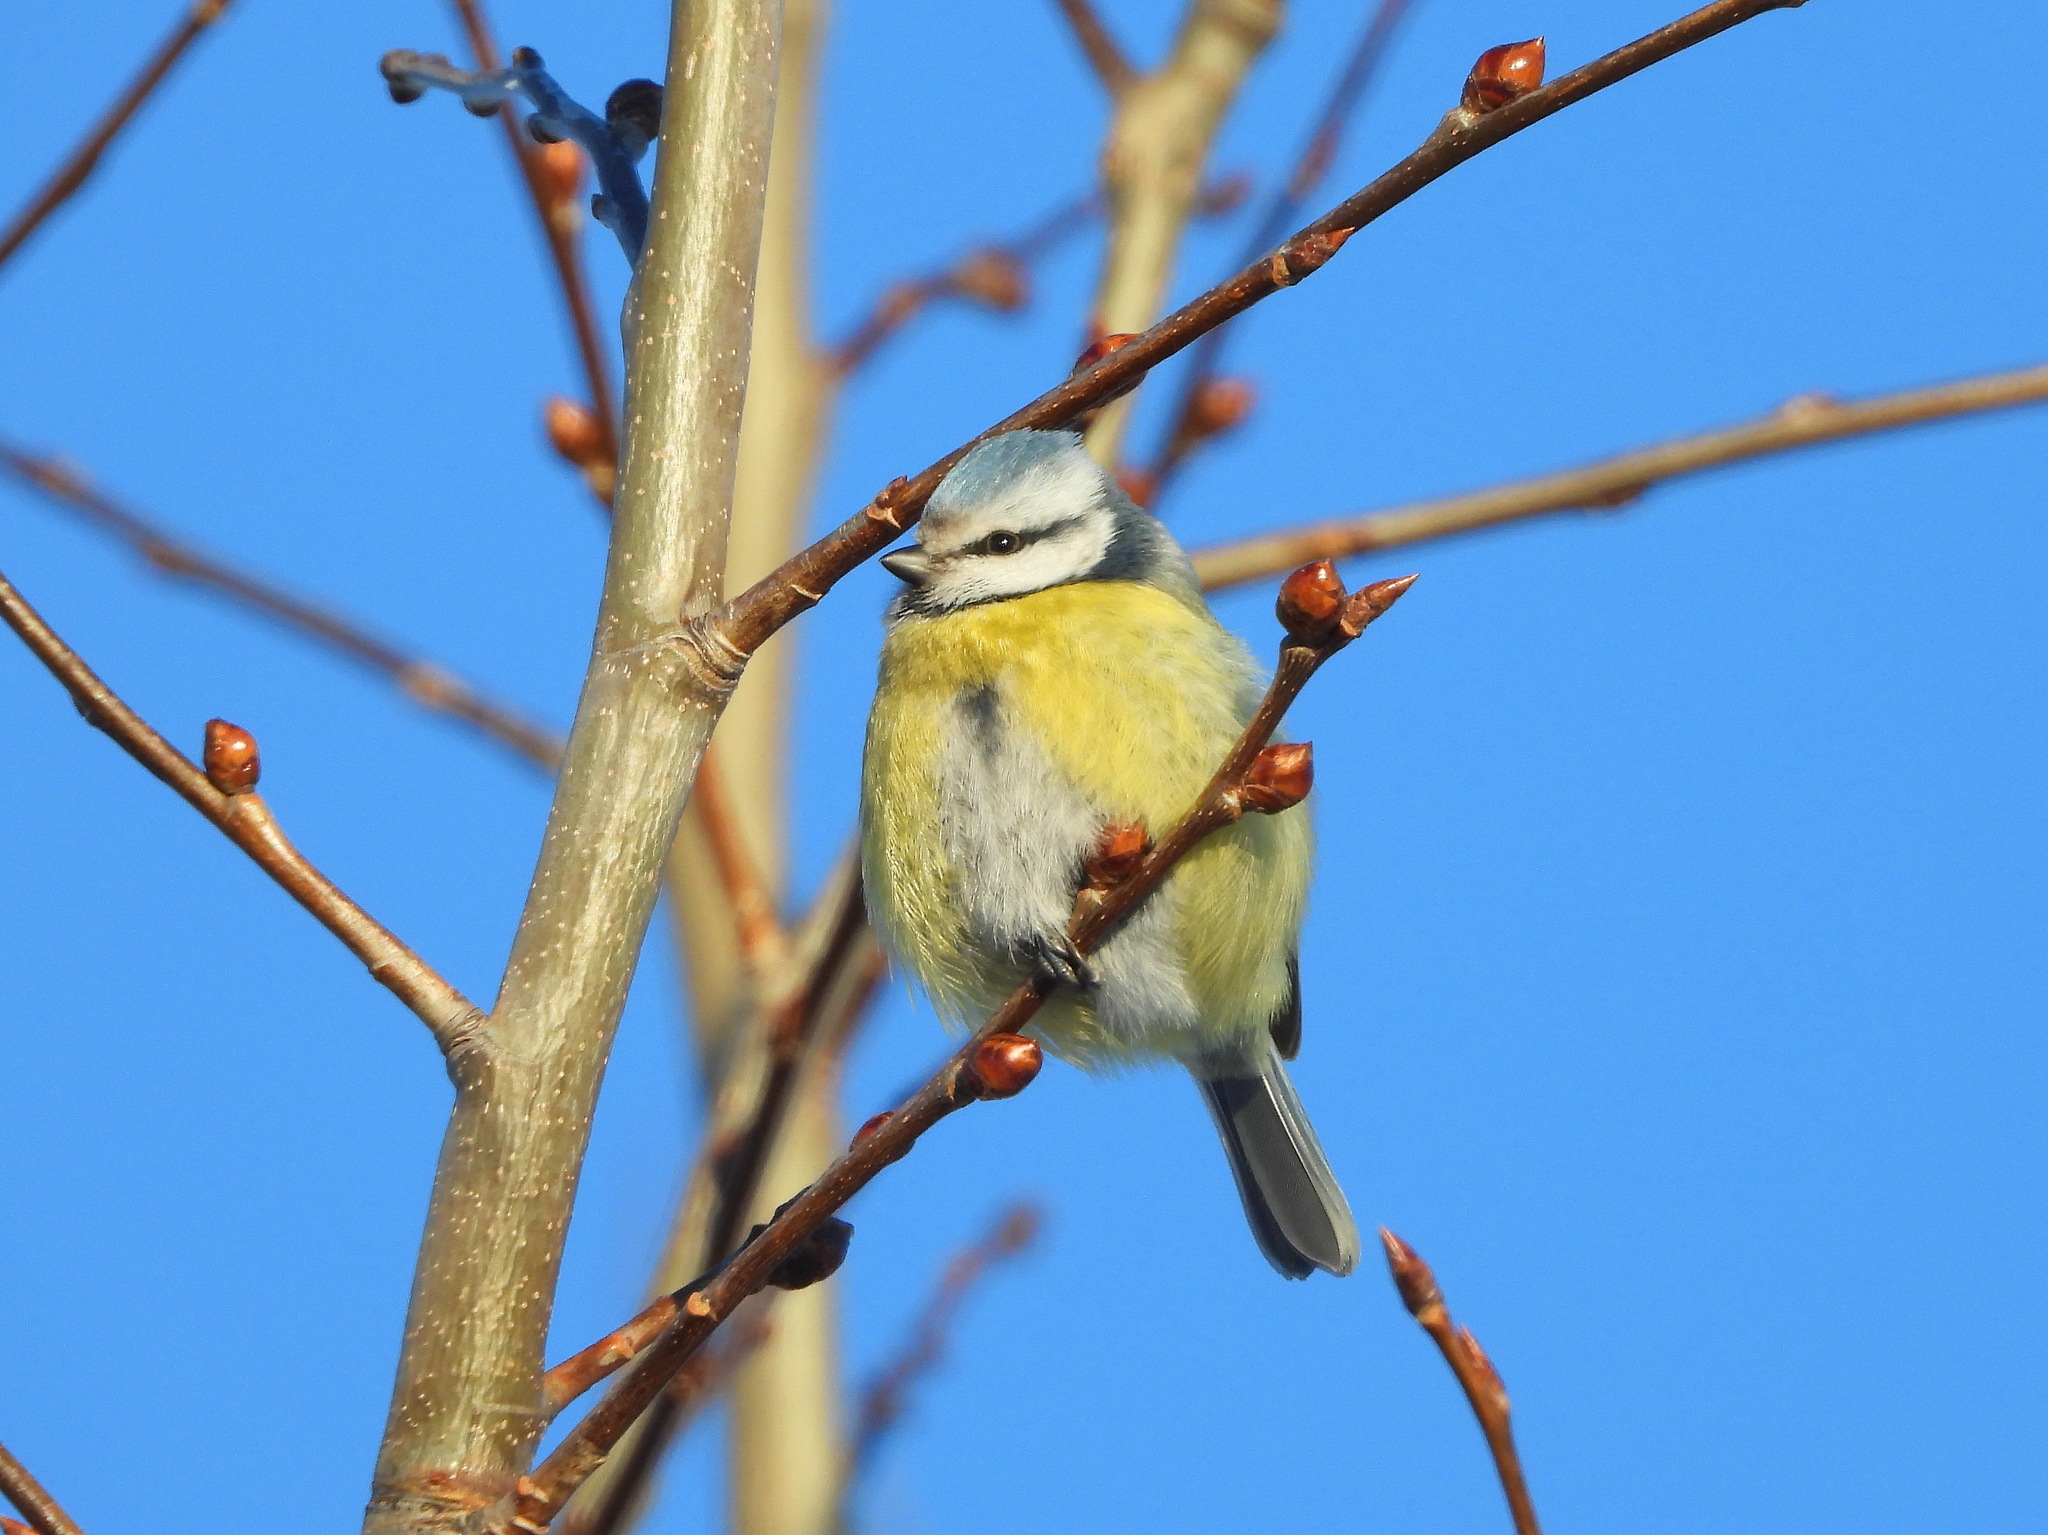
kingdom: Animalia
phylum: Chordata
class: Aves
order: Passeriformes
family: Paridae
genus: Cyanistes
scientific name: Cyanistes caeruleus
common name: Eurasian blue tit
